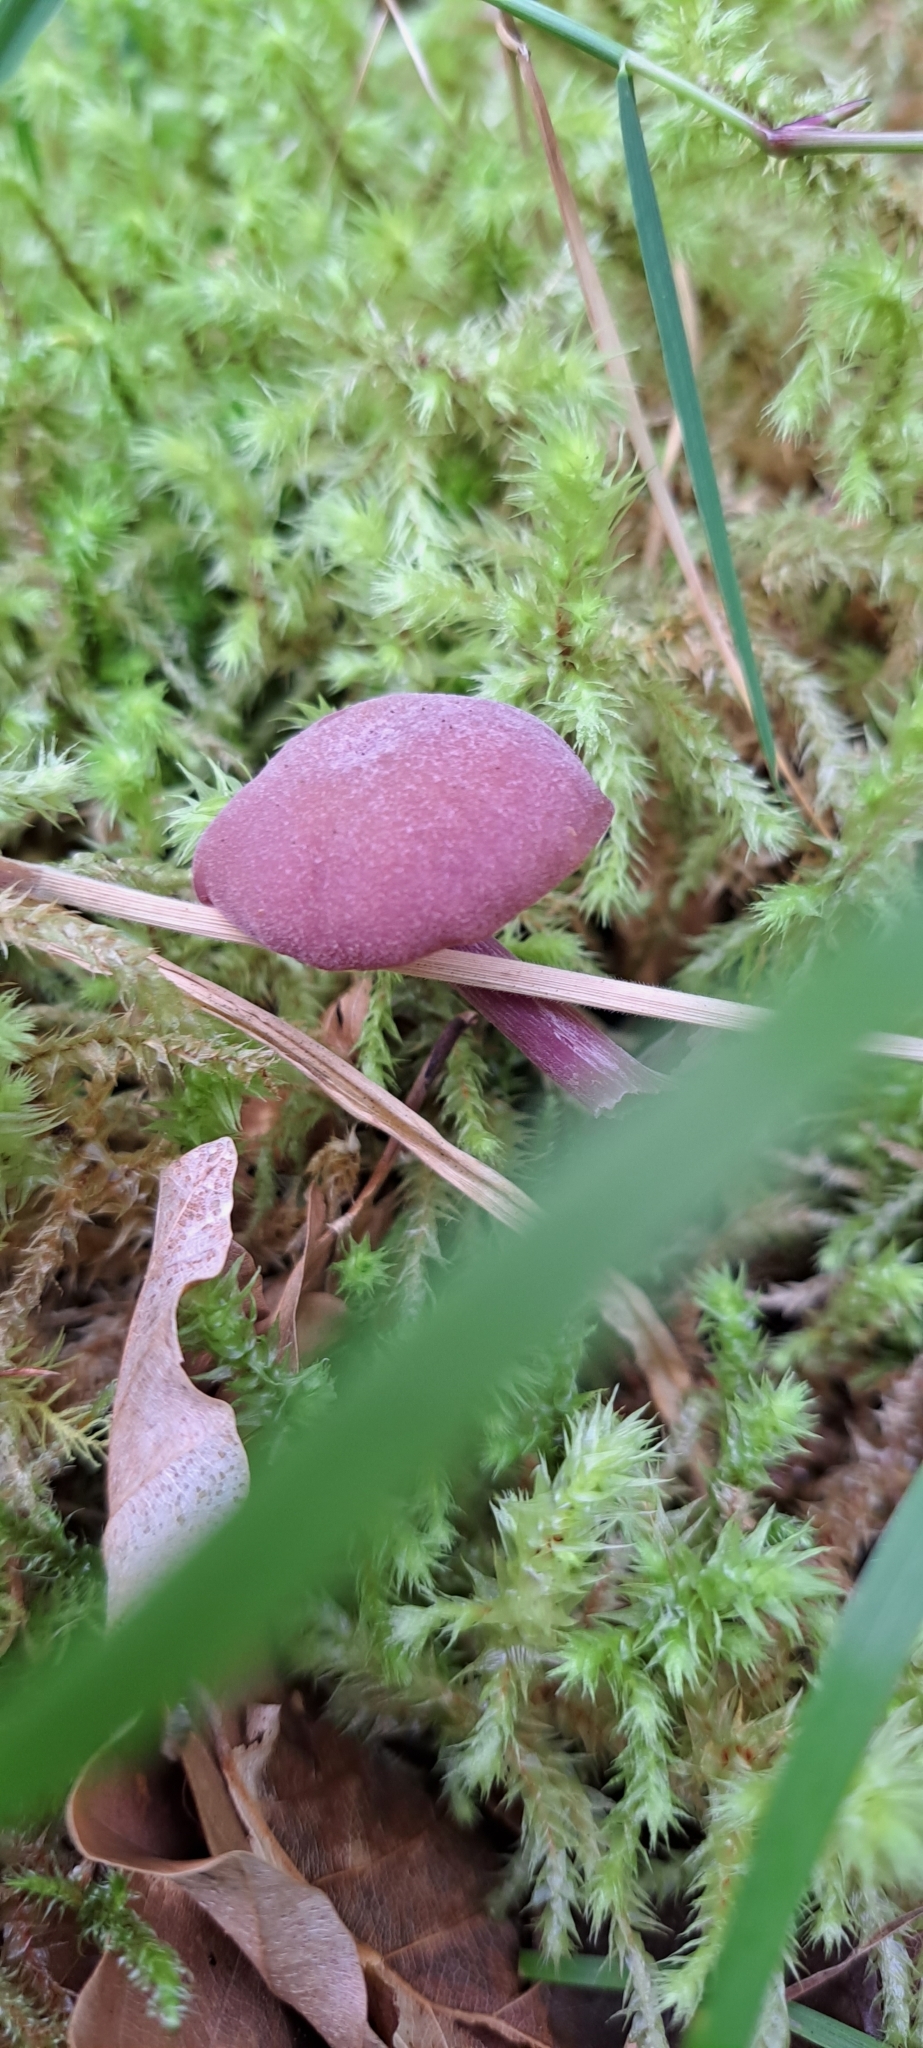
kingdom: Fungi
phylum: Basidiomycota
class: Agaricomycetes
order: Agaricales
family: Hydnangiaceae
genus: Laccaria
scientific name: Laccaria amethystina
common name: Amethyst deceiver
